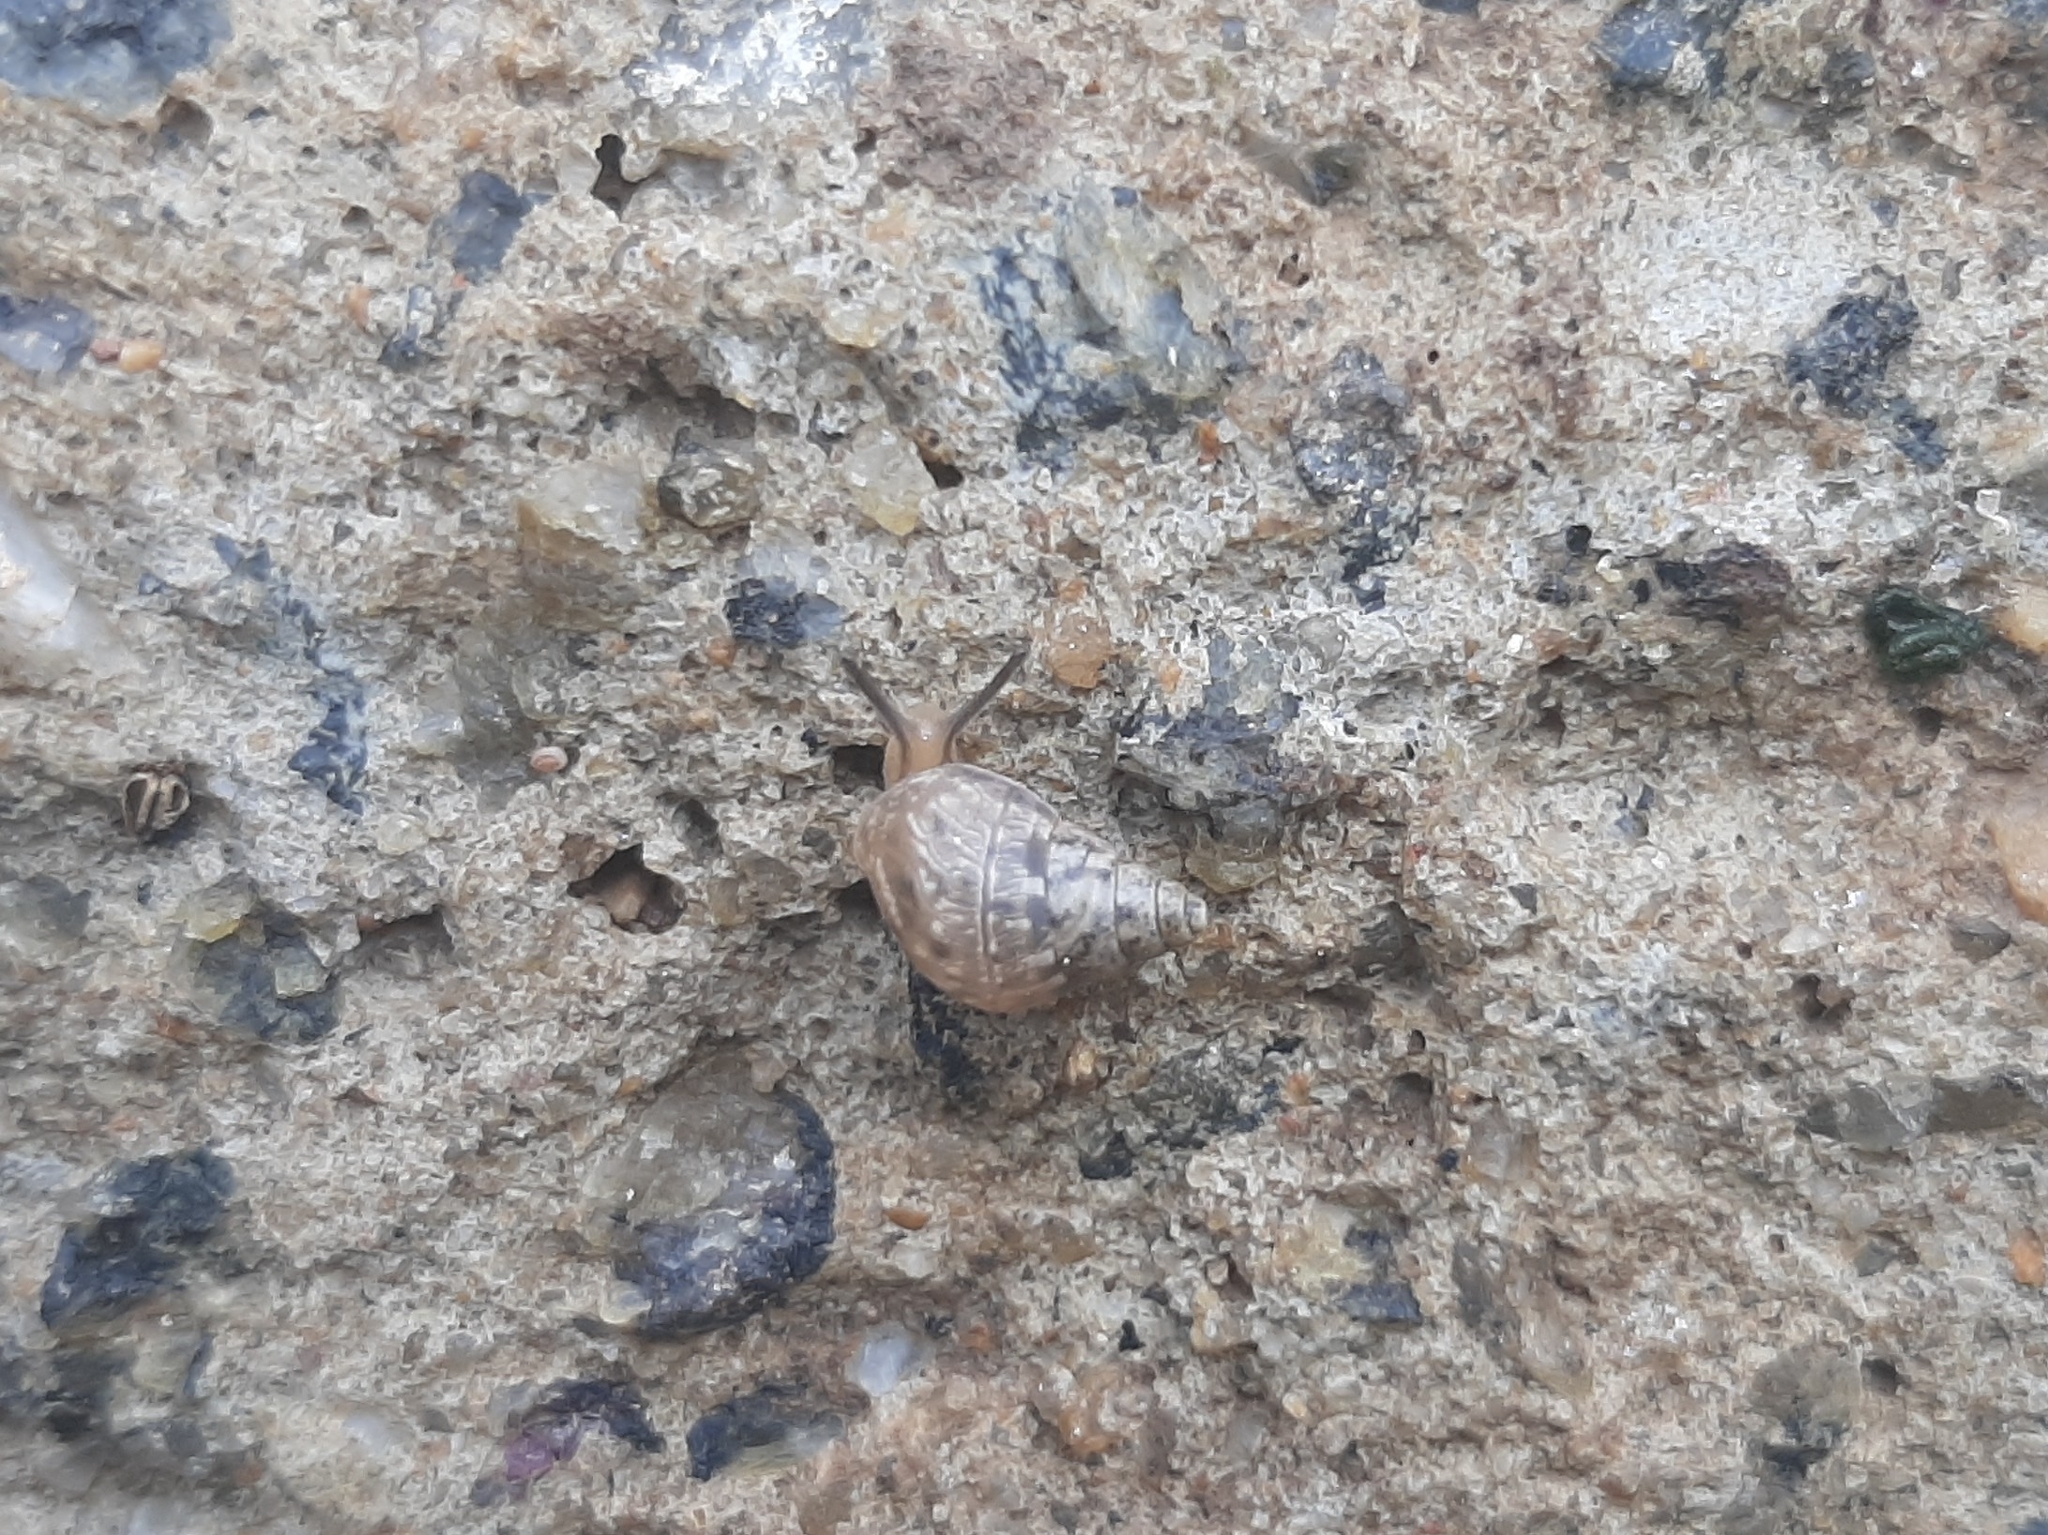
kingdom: Animalia
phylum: Mollusca
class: Gastropoda
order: Stylommatophora
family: Bulimulidae
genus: Bulimulus
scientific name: Bulimulus tenuissimus
